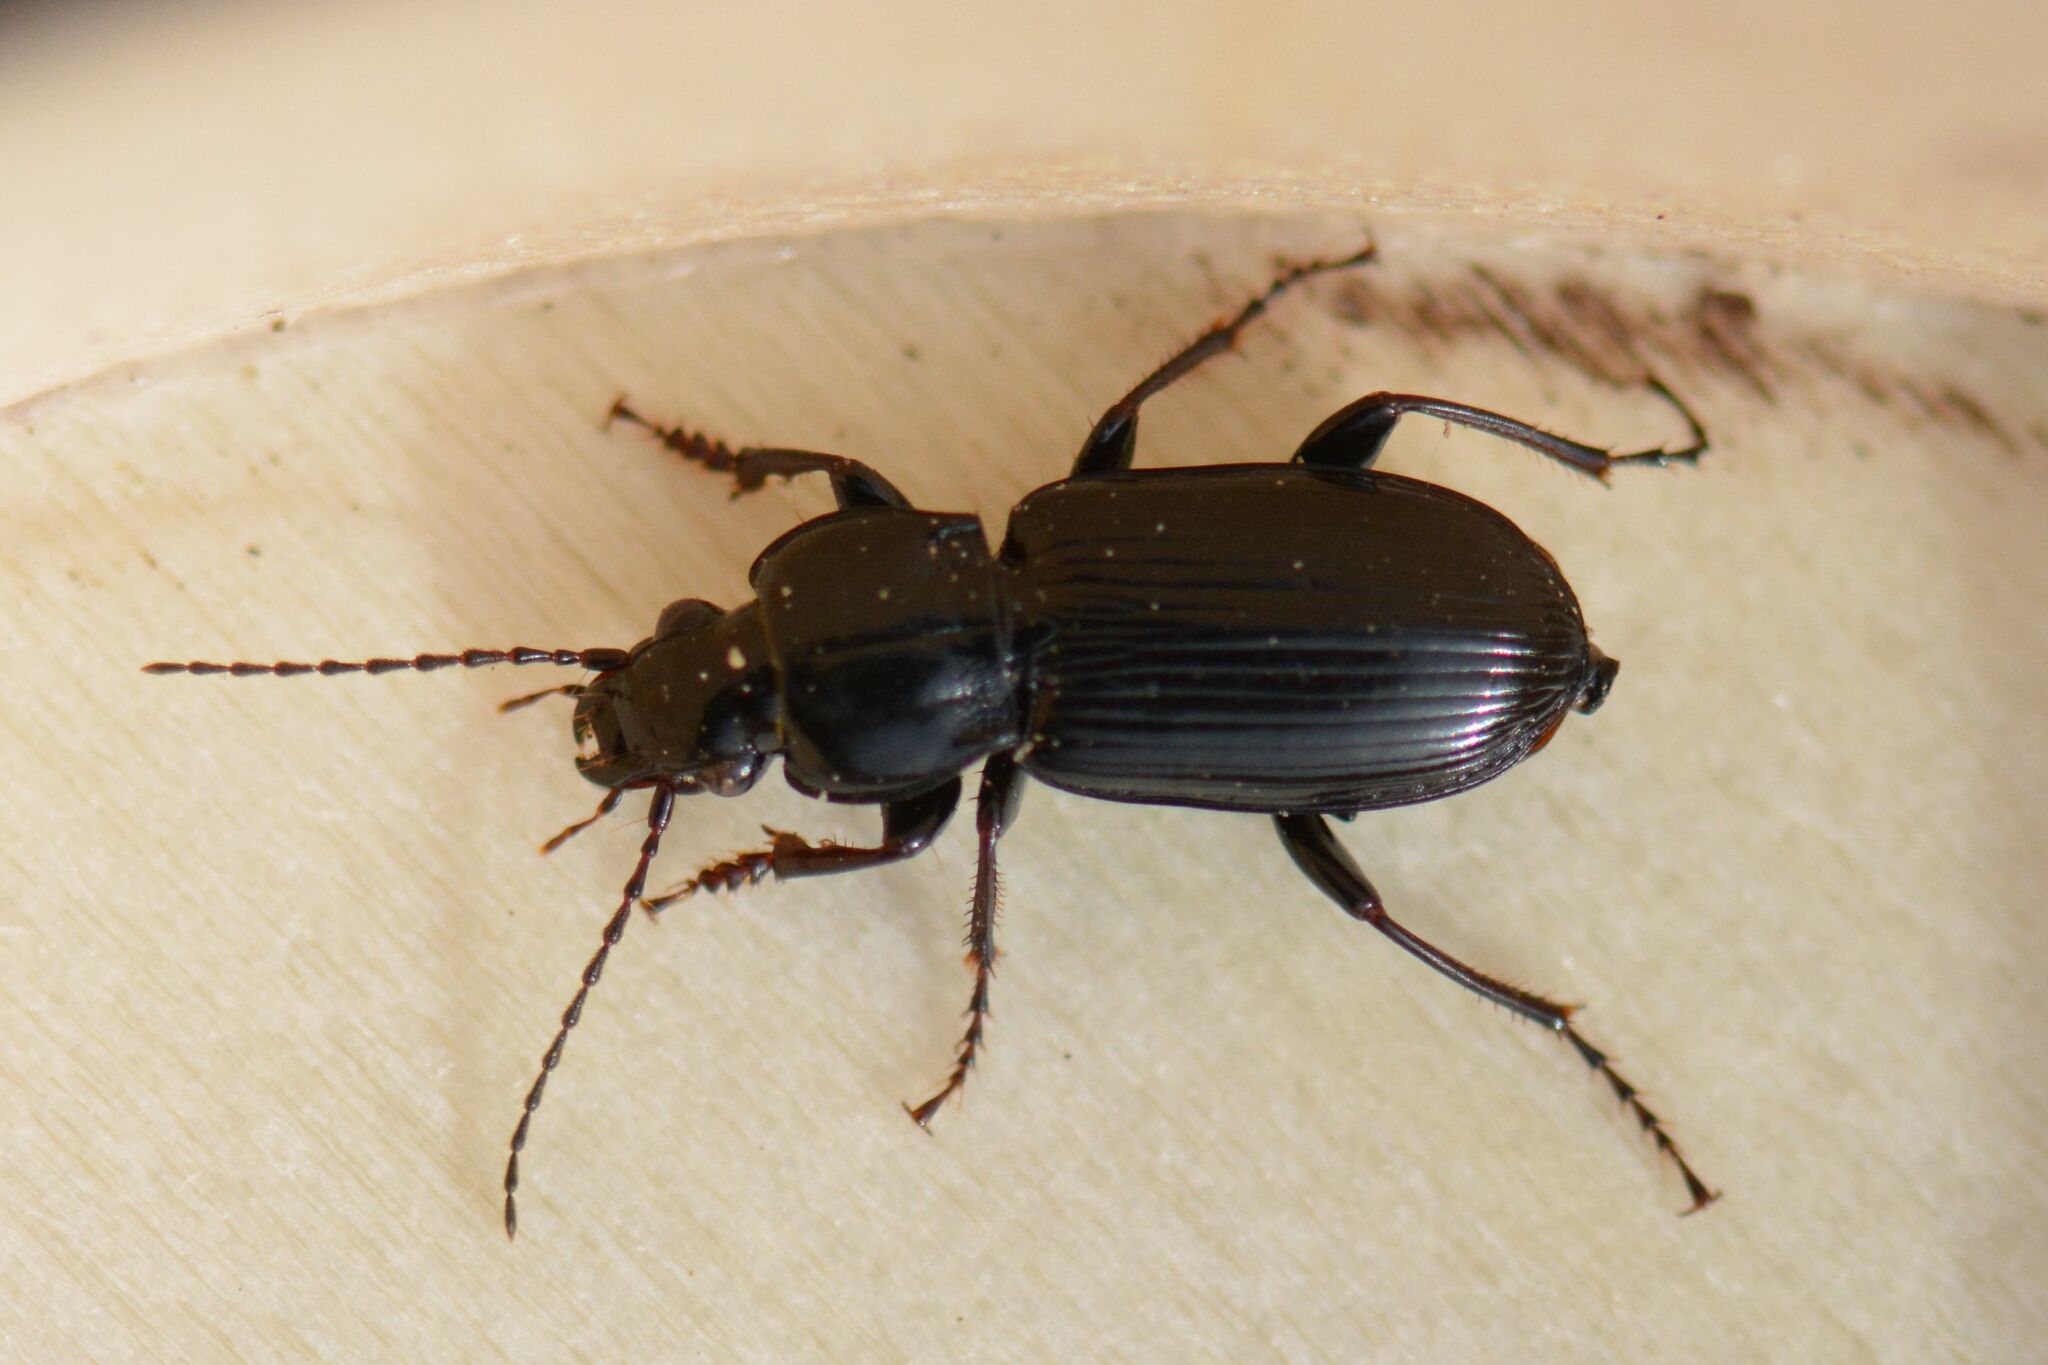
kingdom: Animalia
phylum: Arthropoda
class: Insecta
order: Coleoptera
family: Carabidae
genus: Pterostichus
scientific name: Pterostichus anthracinus
